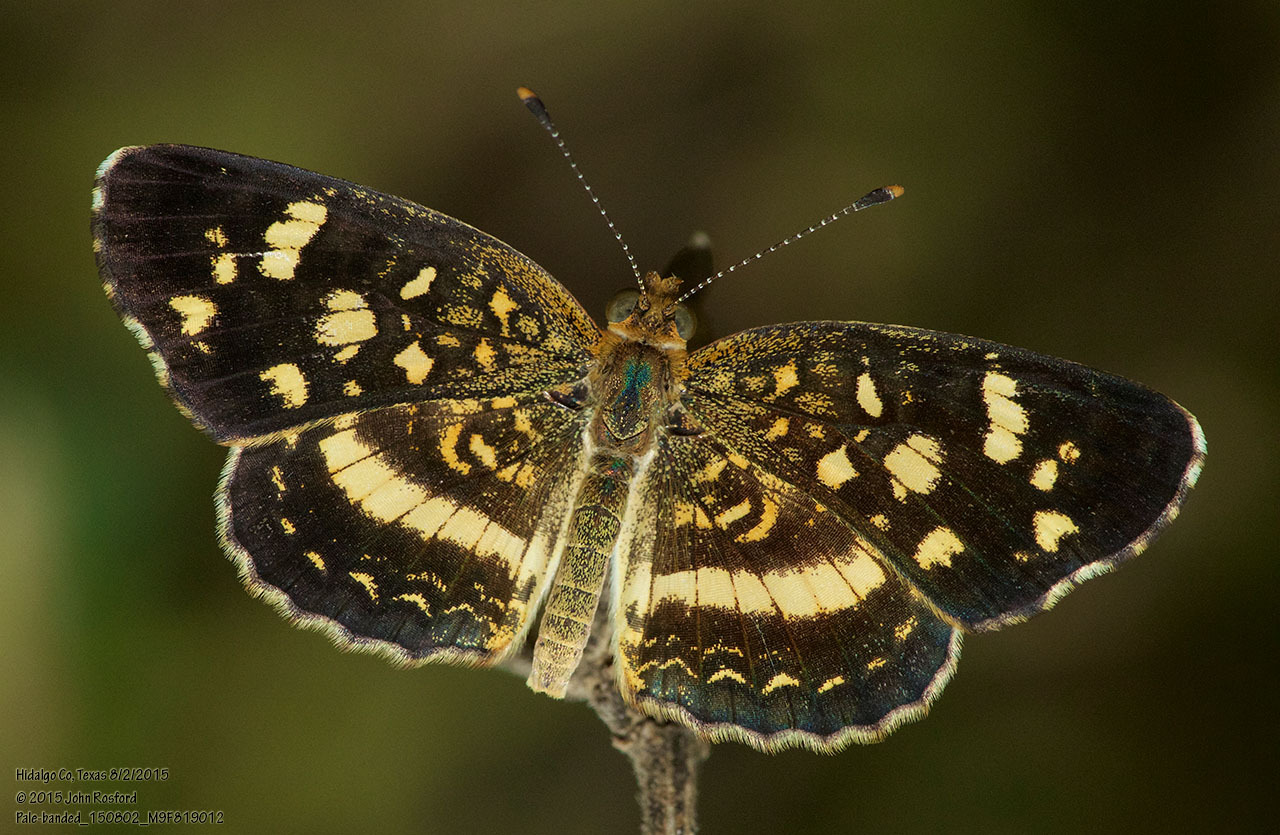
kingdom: Animalia
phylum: Arthropoda
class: Insecta
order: Lepidoptera
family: Nymphalidae
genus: Anthanassa
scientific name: Anthanassa tulcis
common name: Pale-banded crescent
